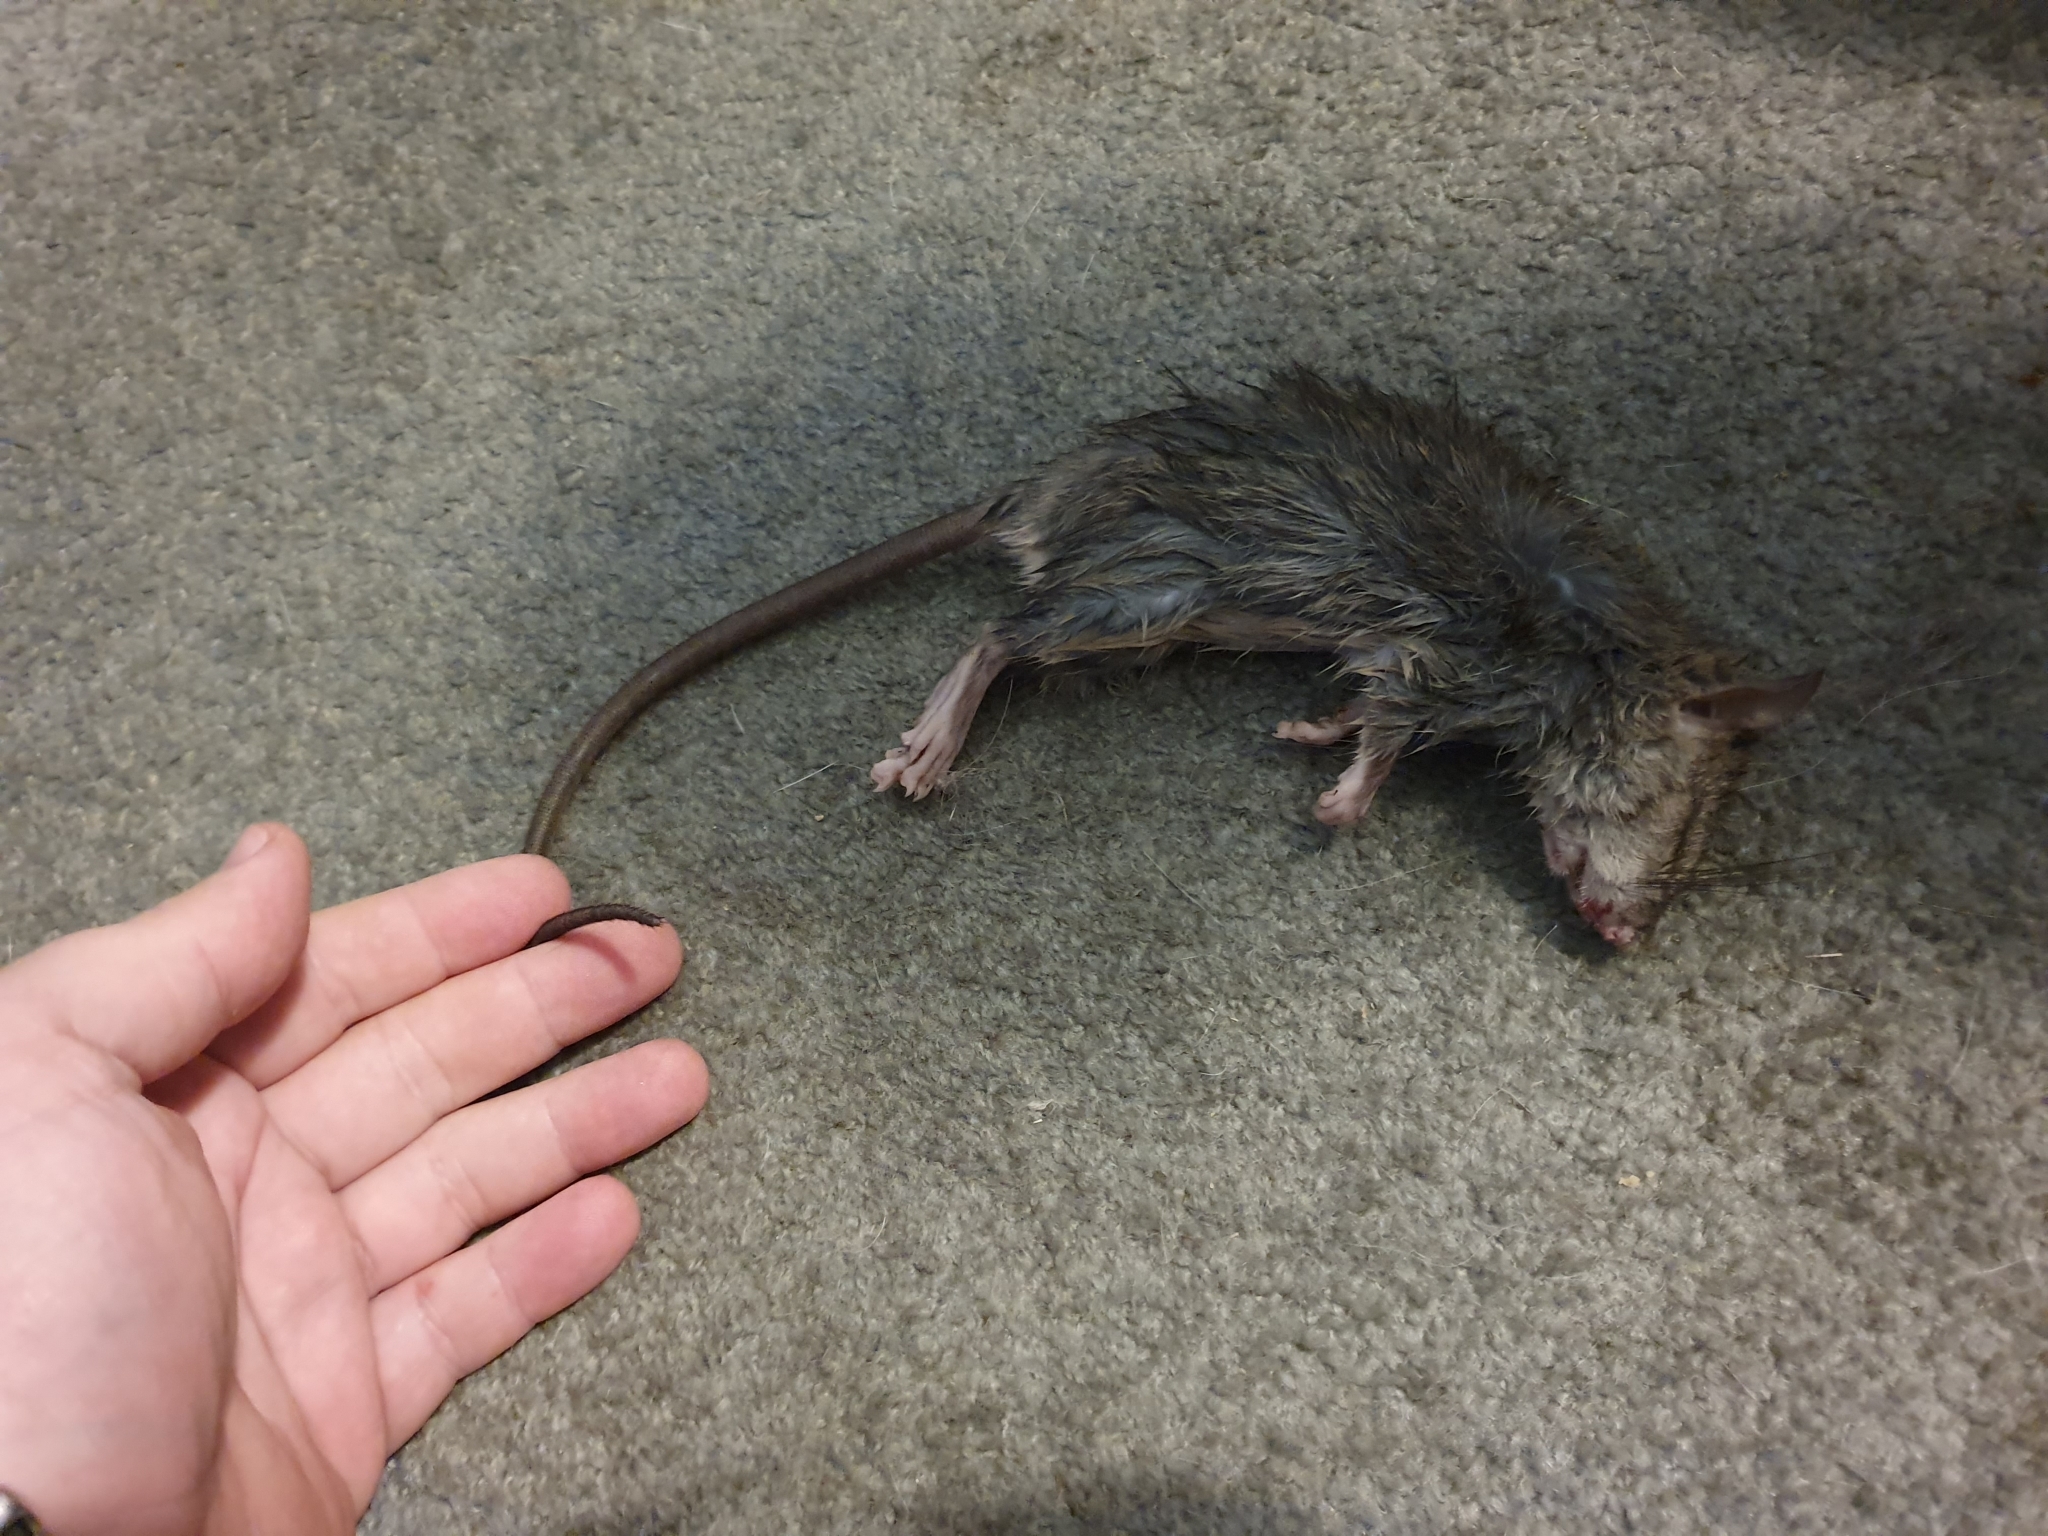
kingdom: Animalia
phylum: Chordata
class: Mammalia
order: Rodentia
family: Muridae
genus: Rattus
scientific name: Rattus rattus
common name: Black rat
